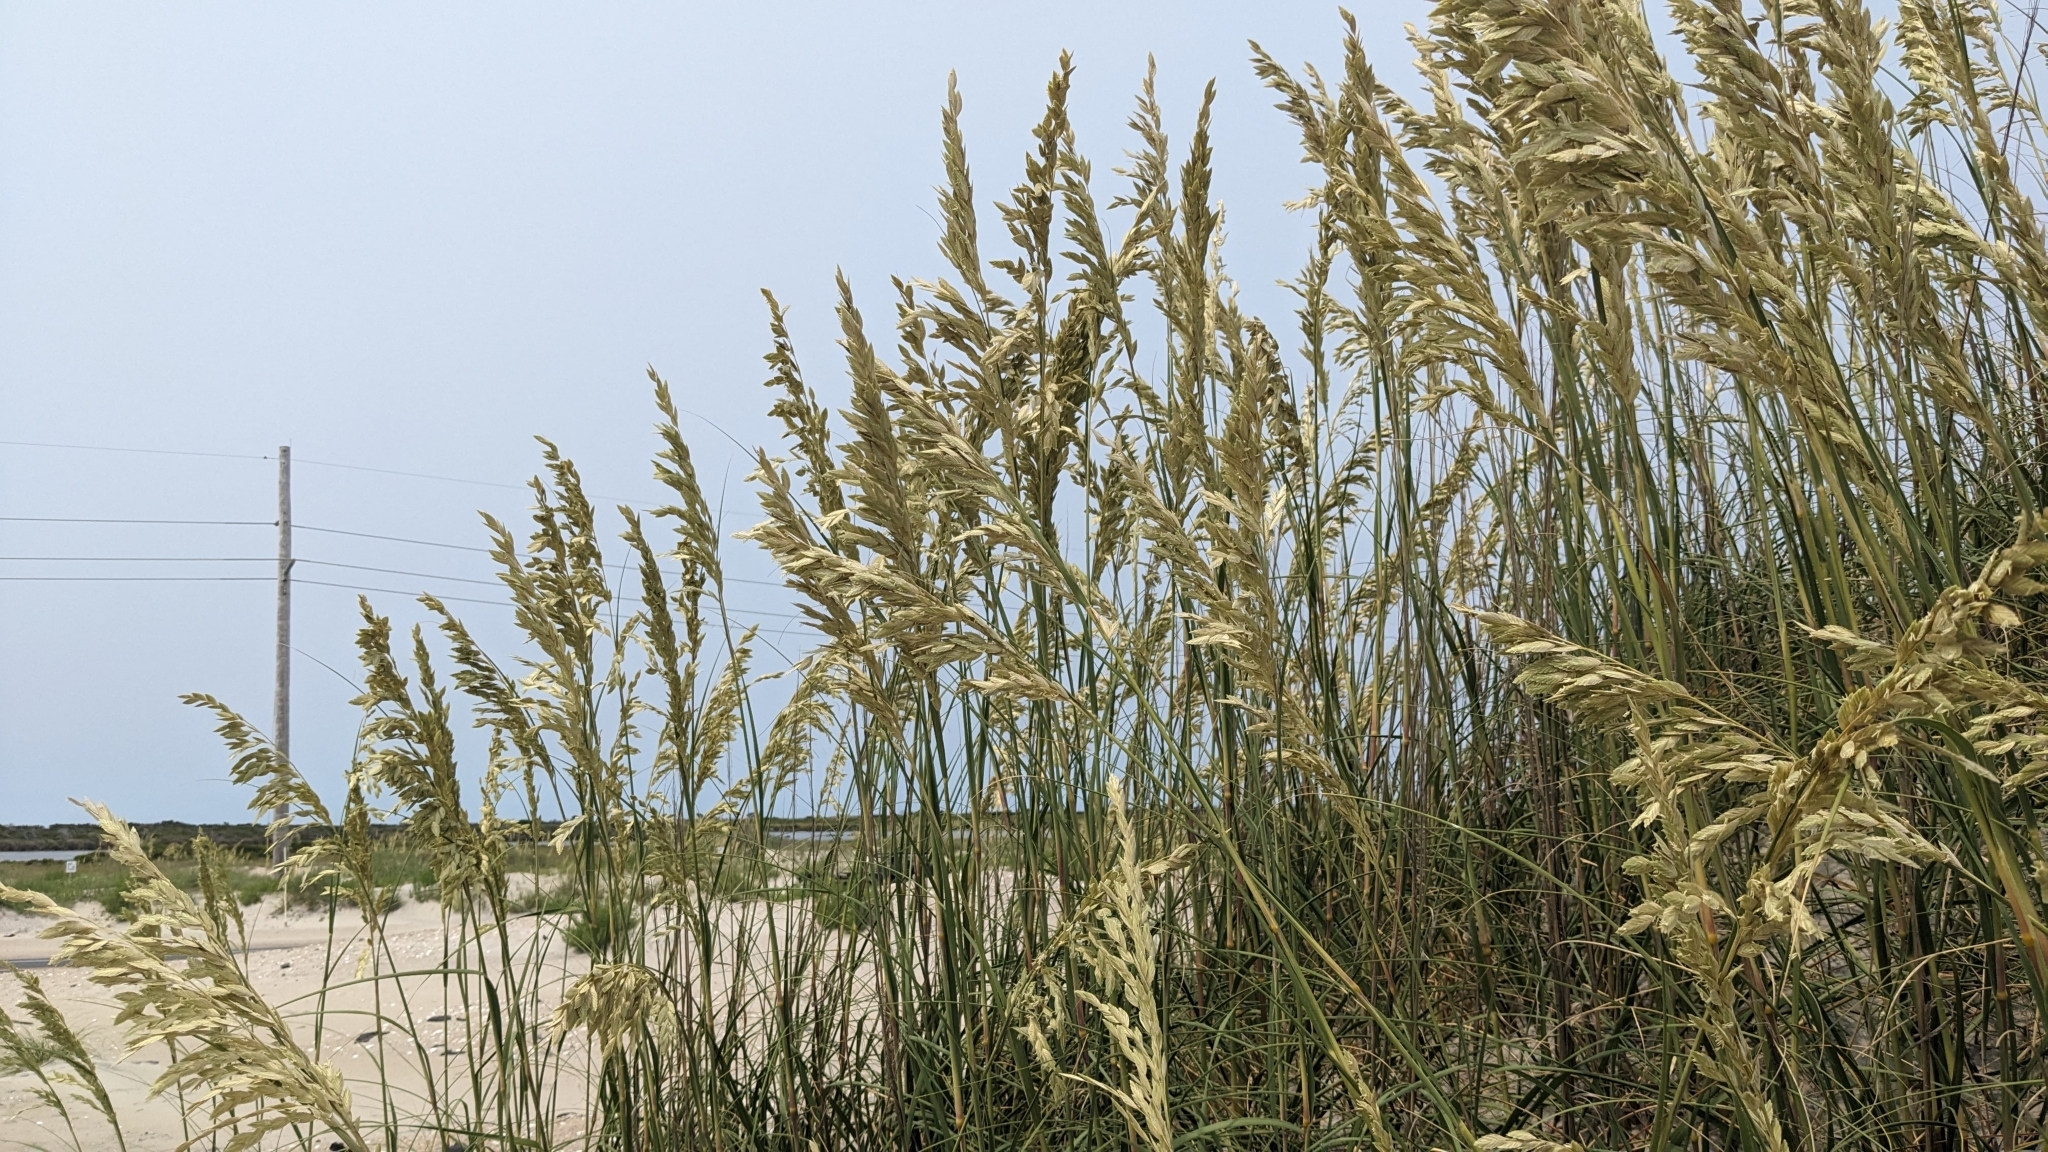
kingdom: Plantae
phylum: Tracheophyta
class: Liliopsida
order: Poales
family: Poaceae
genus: Uniola
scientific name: Uniola paniculata
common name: Seaside-oats
